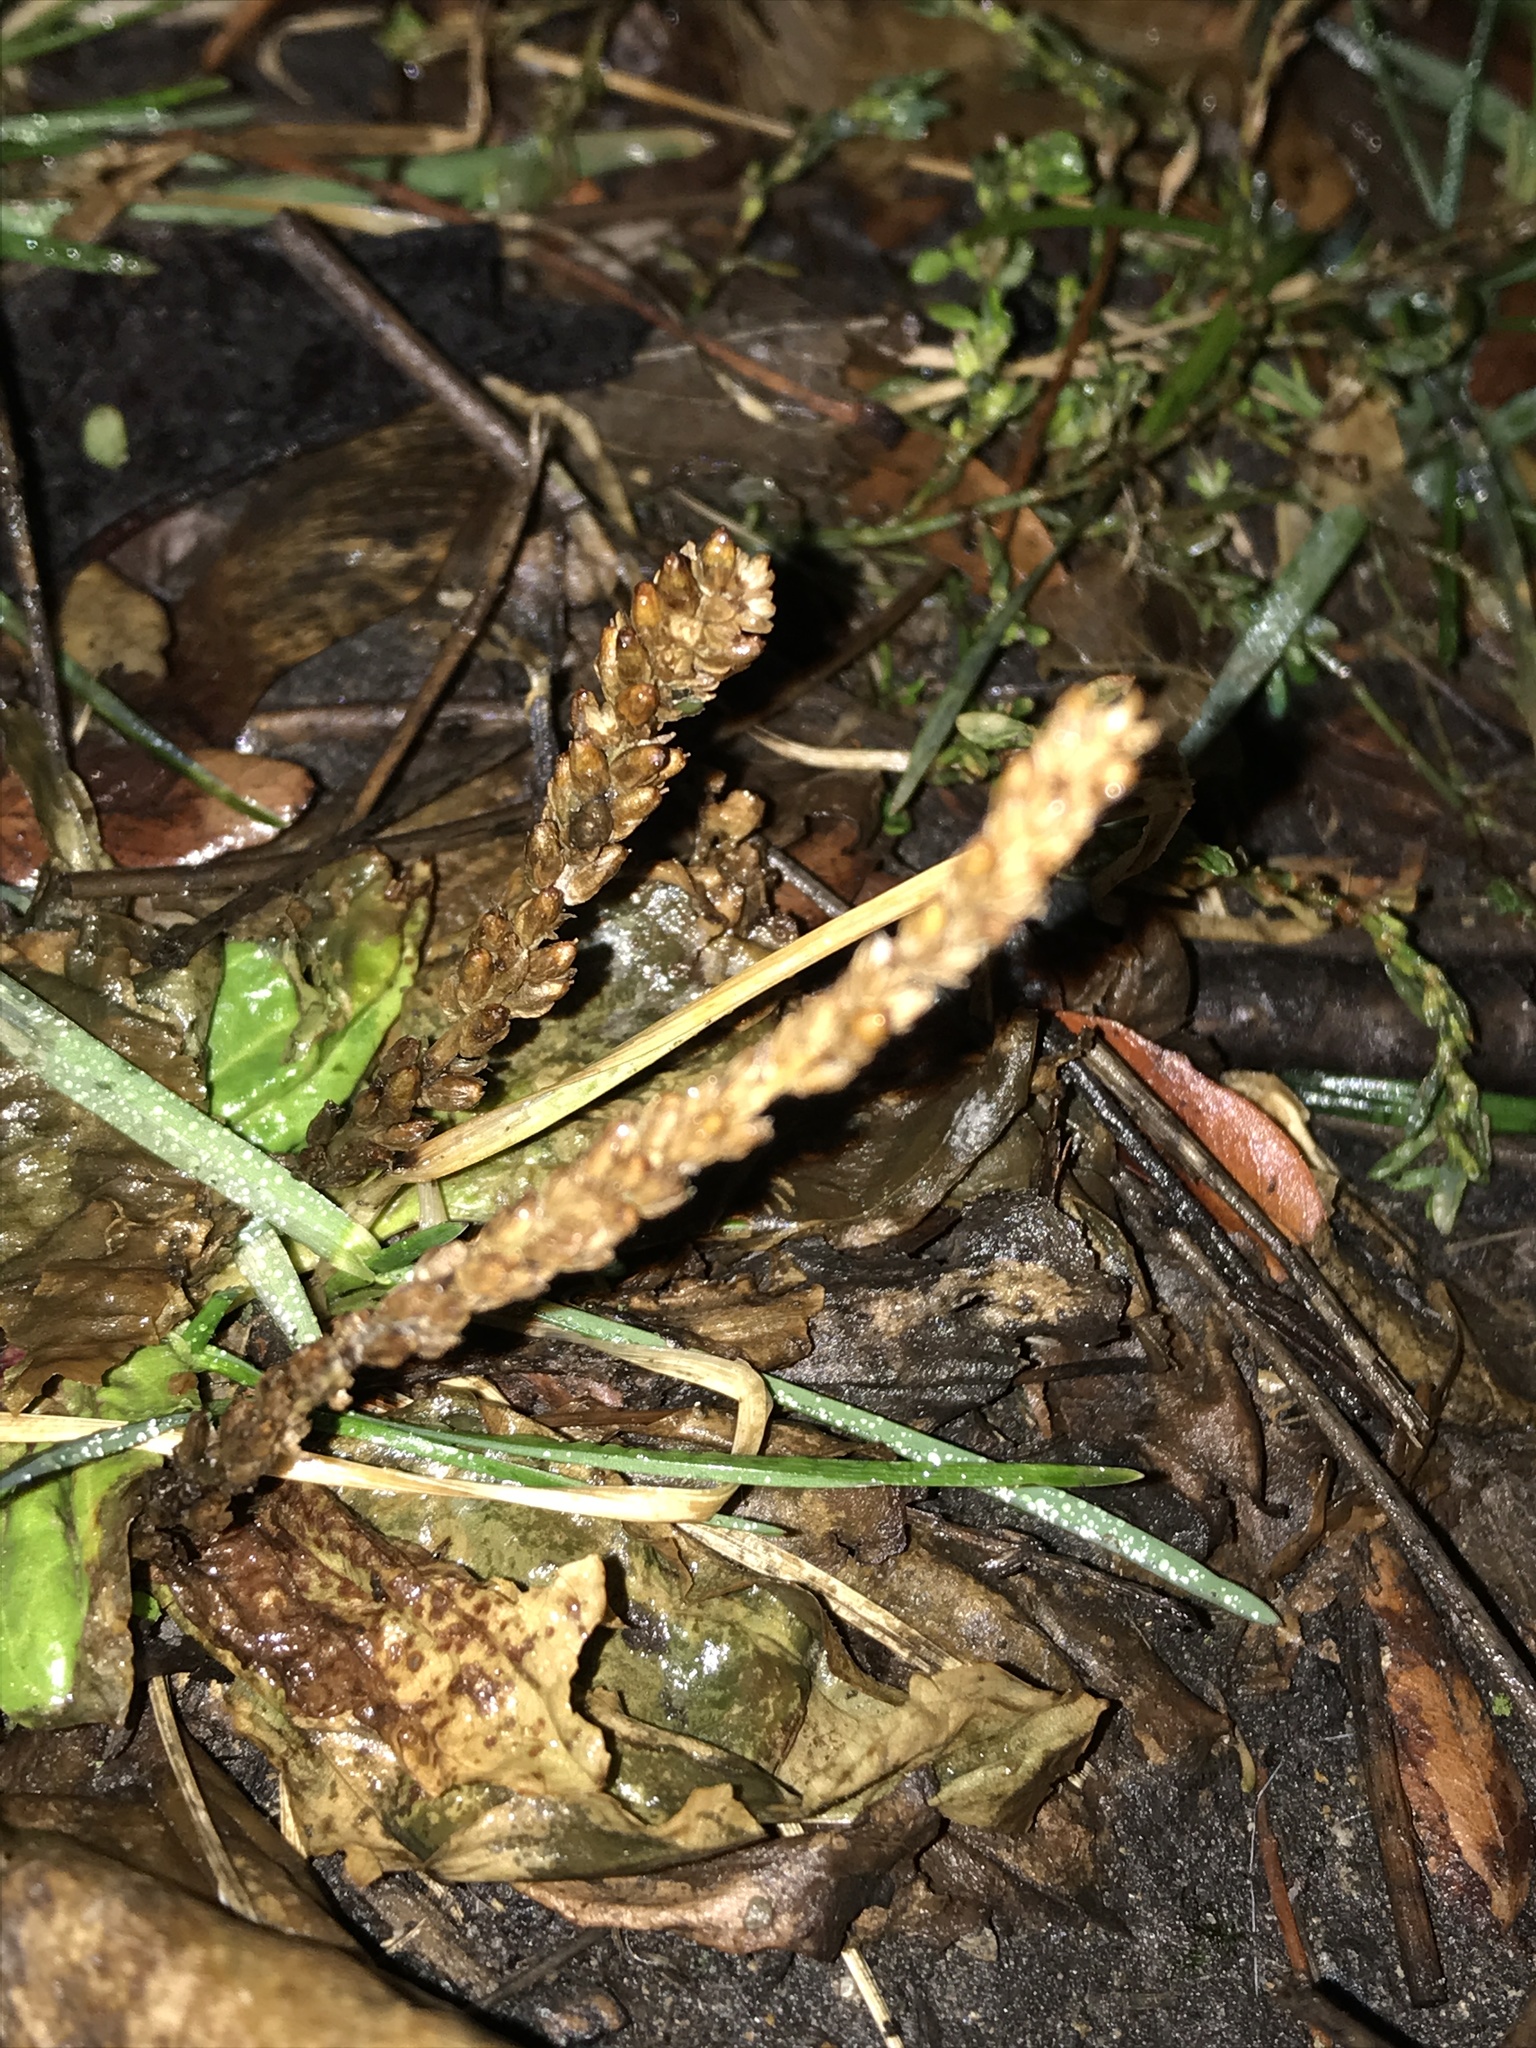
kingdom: Plantae
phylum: Tracheophyta
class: Magnoliopsida
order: Lamiales
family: Plantaginaceae
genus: Plantago
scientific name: Plantago
